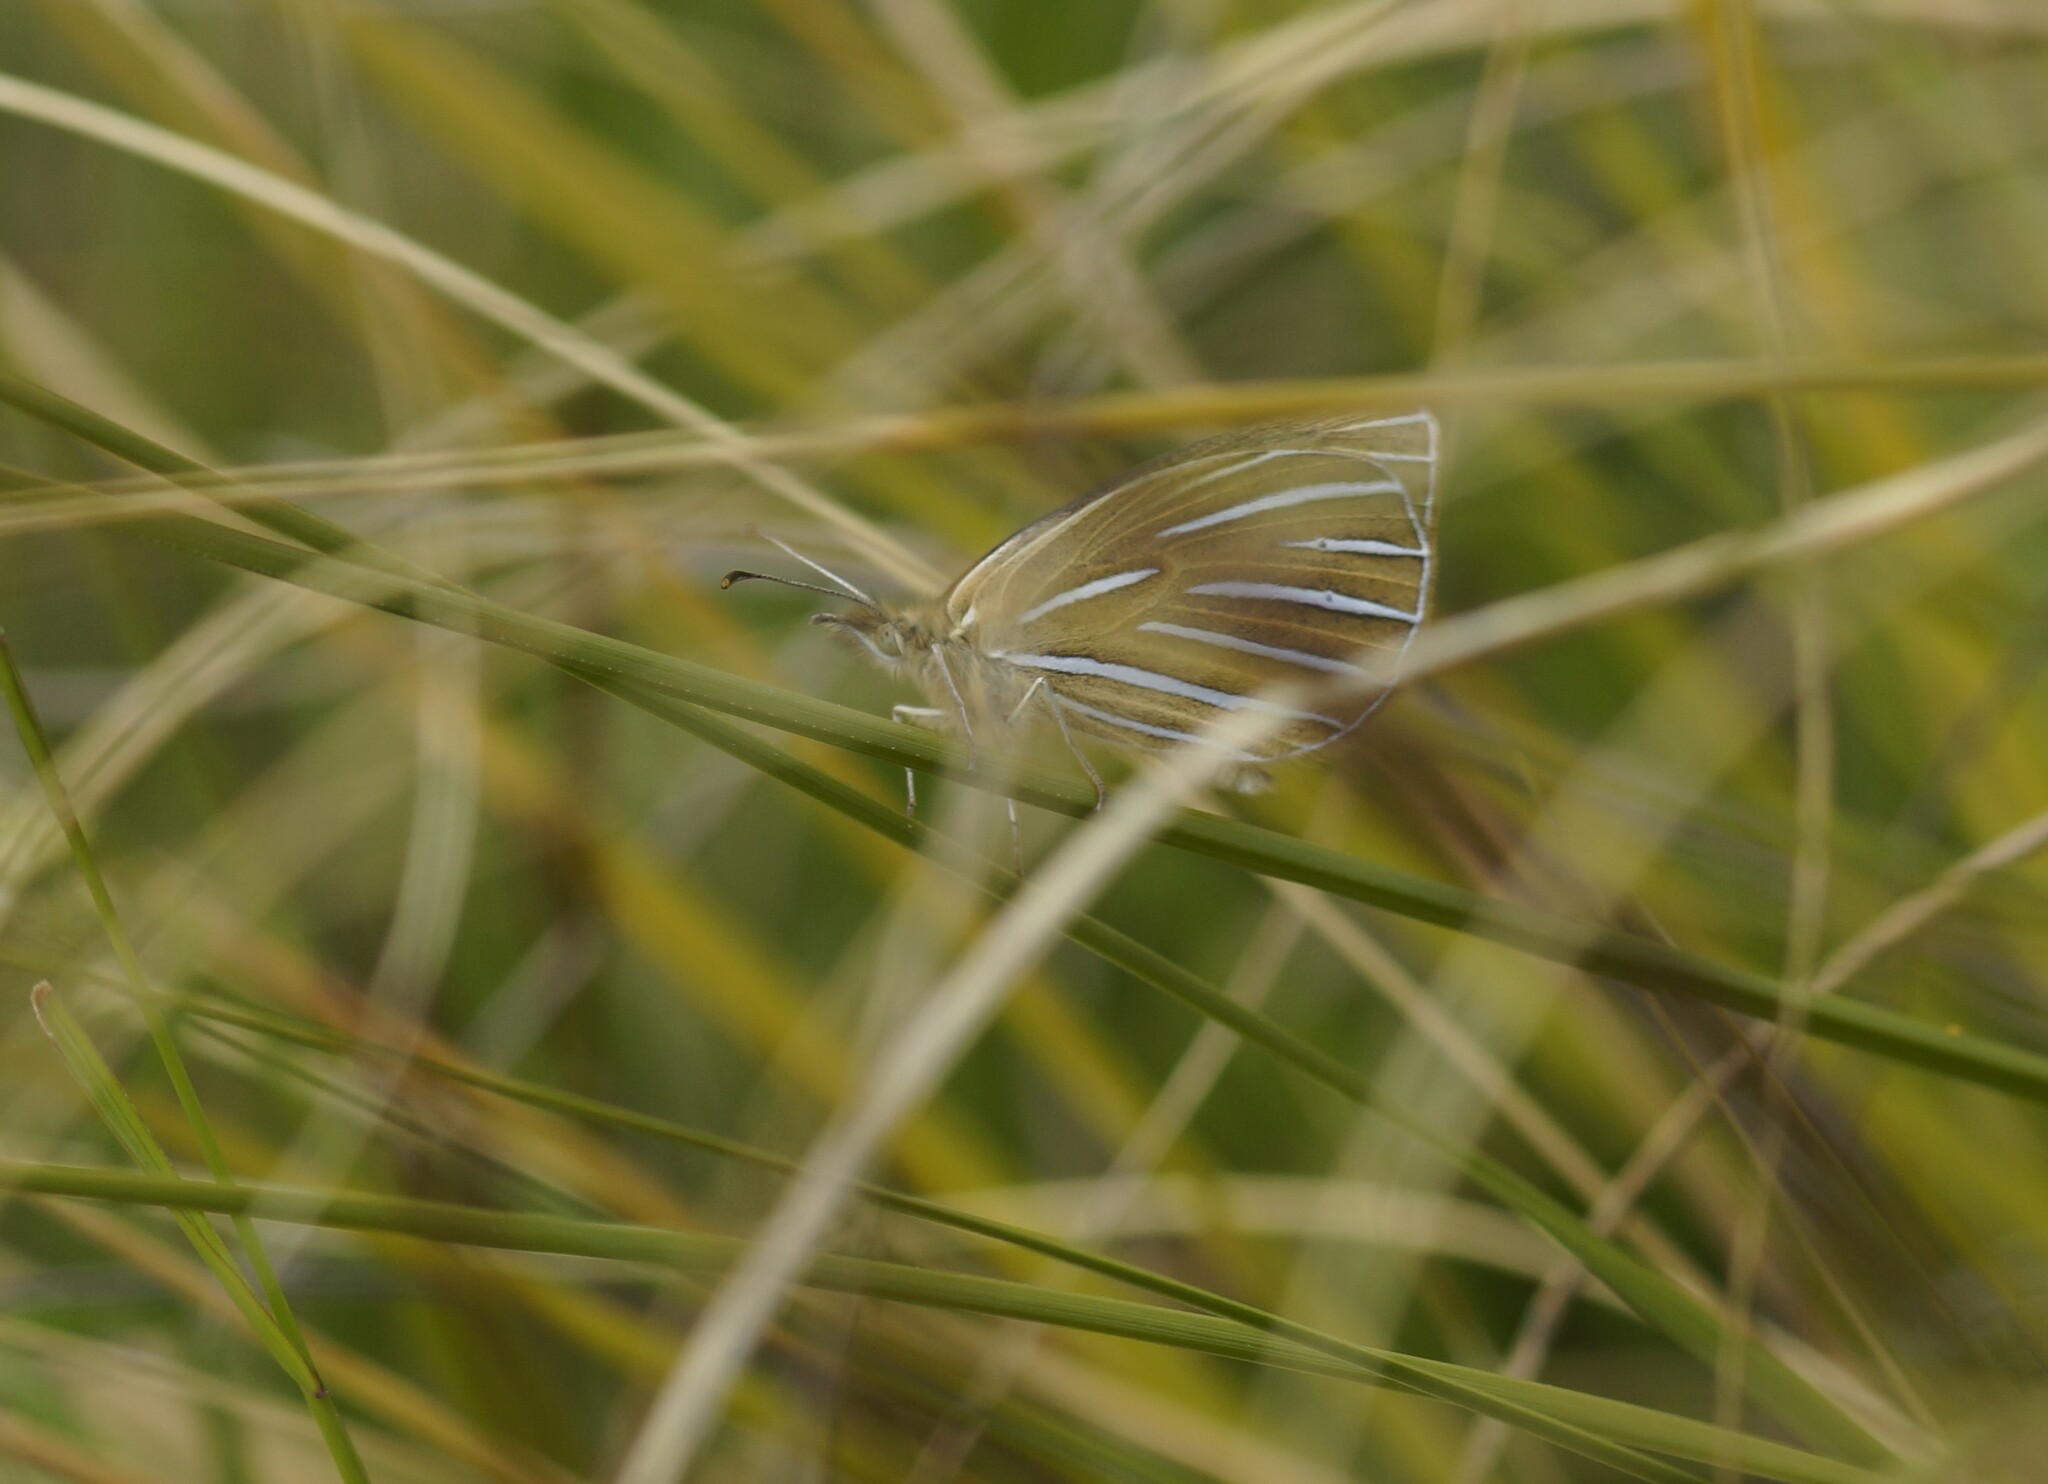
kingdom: Animalia
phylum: Arthropoda
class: Insecta
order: Lepidoptera
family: Nymphalidae
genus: Argyrophenga
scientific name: Argyrophenga antipodum
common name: Common tussock butterfly
